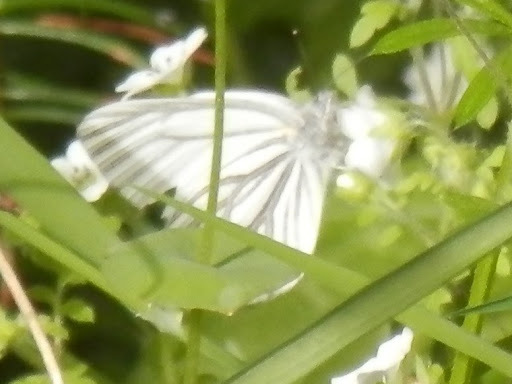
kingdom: Animalia
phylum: Arthropoda
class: Insecta
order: Lepidoptera
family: Pieridae
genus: Pieris
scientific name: Pieris marginalis
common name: Margined white
